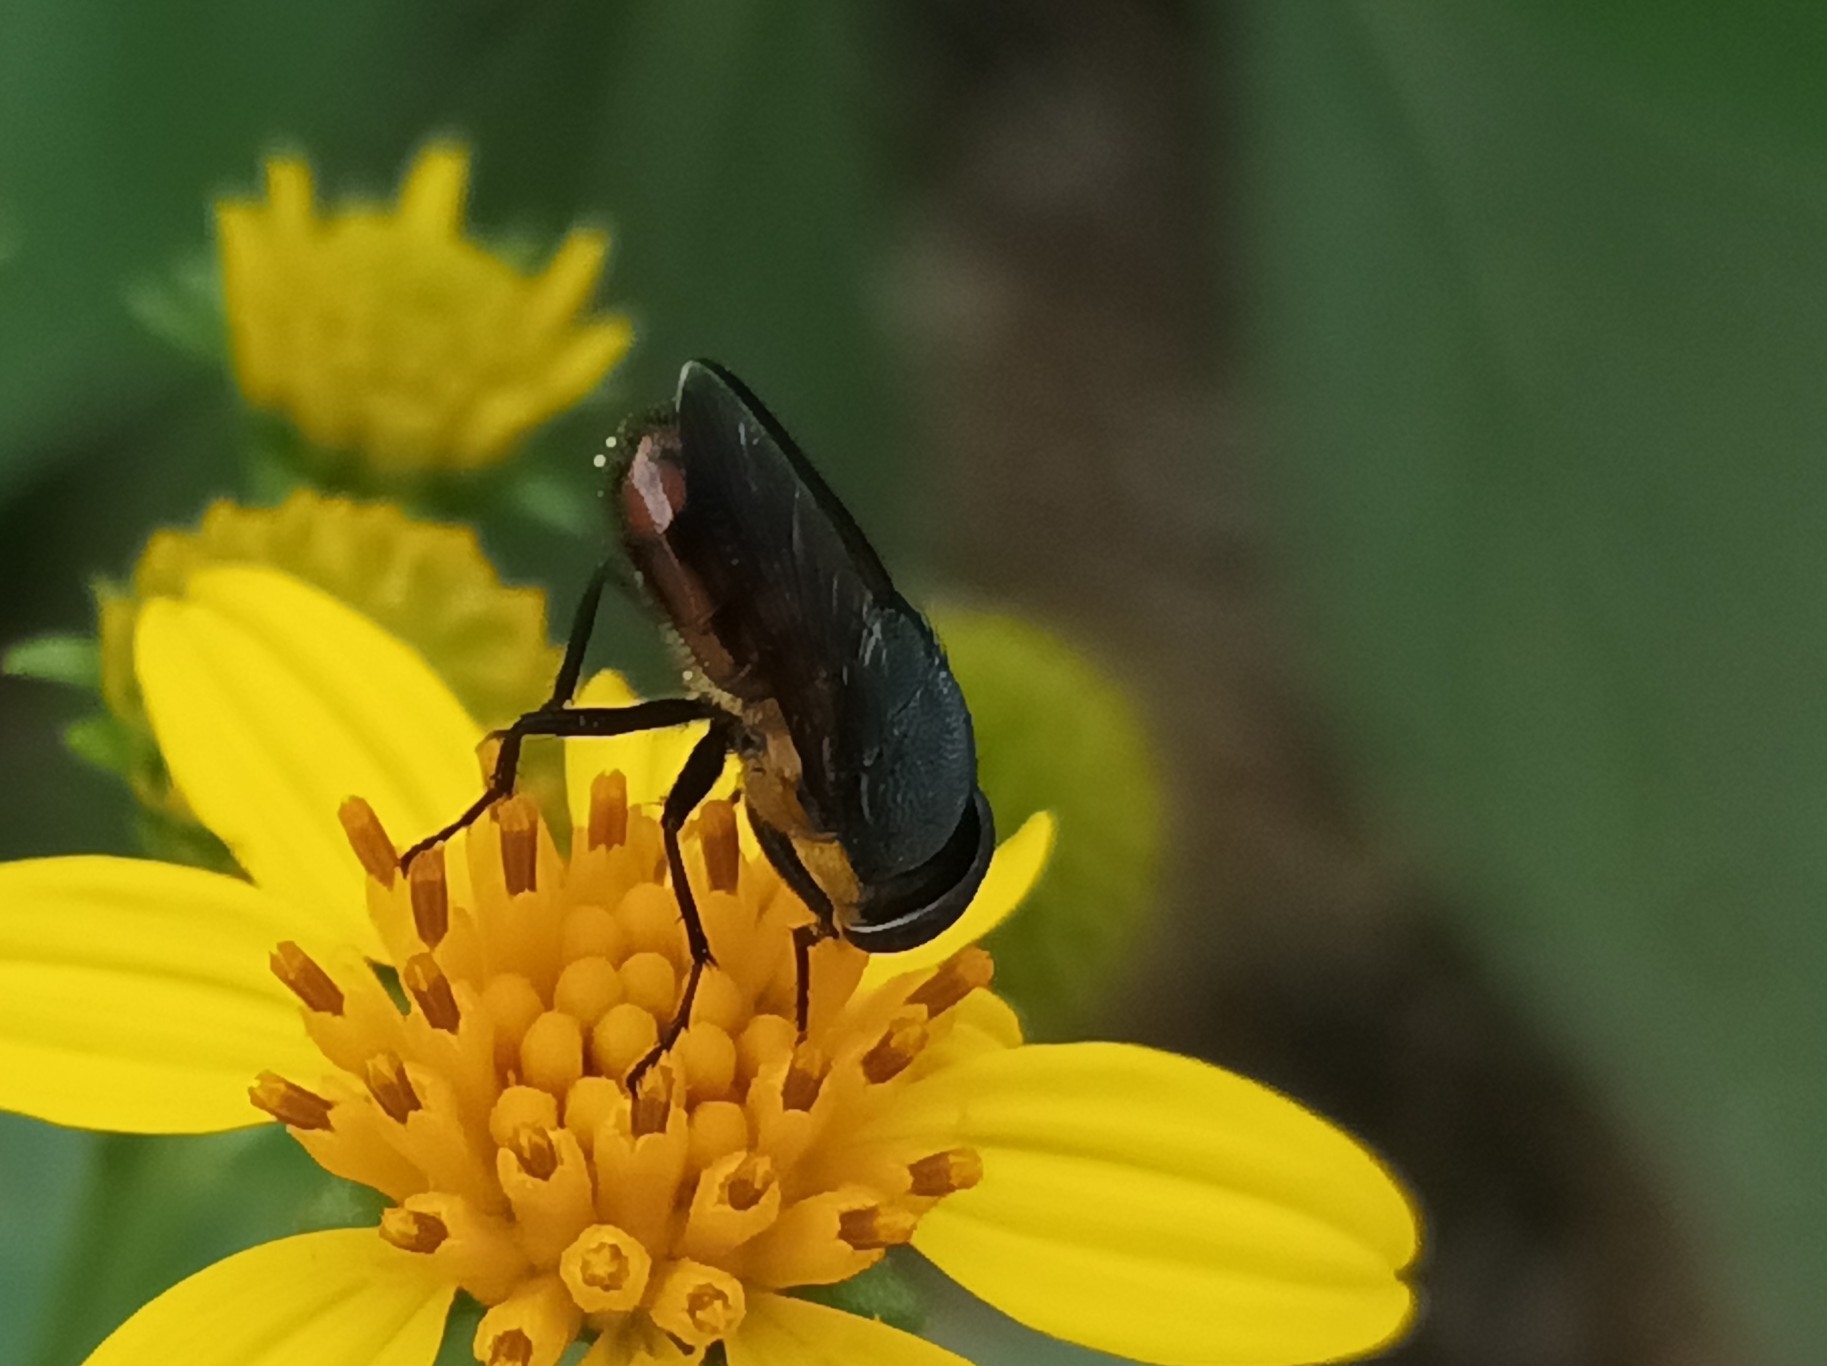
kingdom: Animalia
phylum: Arthropoda
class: Insecta
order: Diptera
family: Calliphoridae
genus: Idiellopsis
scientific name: Idiellopsis xanthogaster
